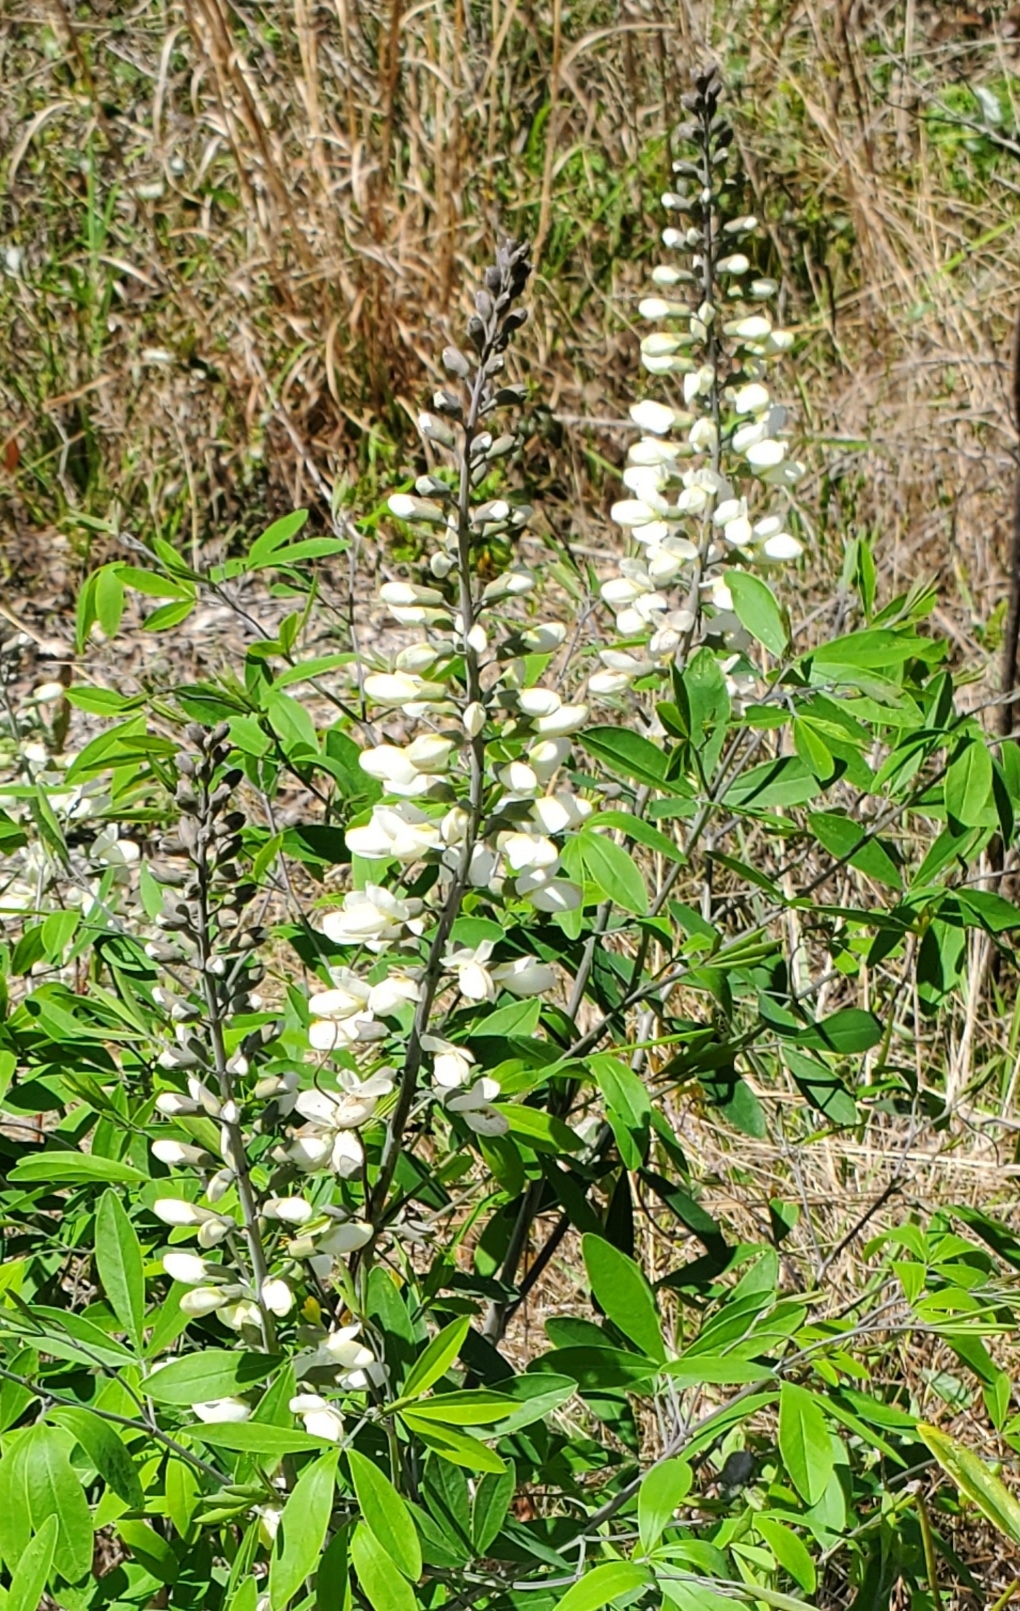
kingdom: Plantae
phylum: Tracheophyta
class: Magnoliopsida
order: Fabales
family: Fabaceae
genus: Baptisia
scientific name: Baptisia alba
